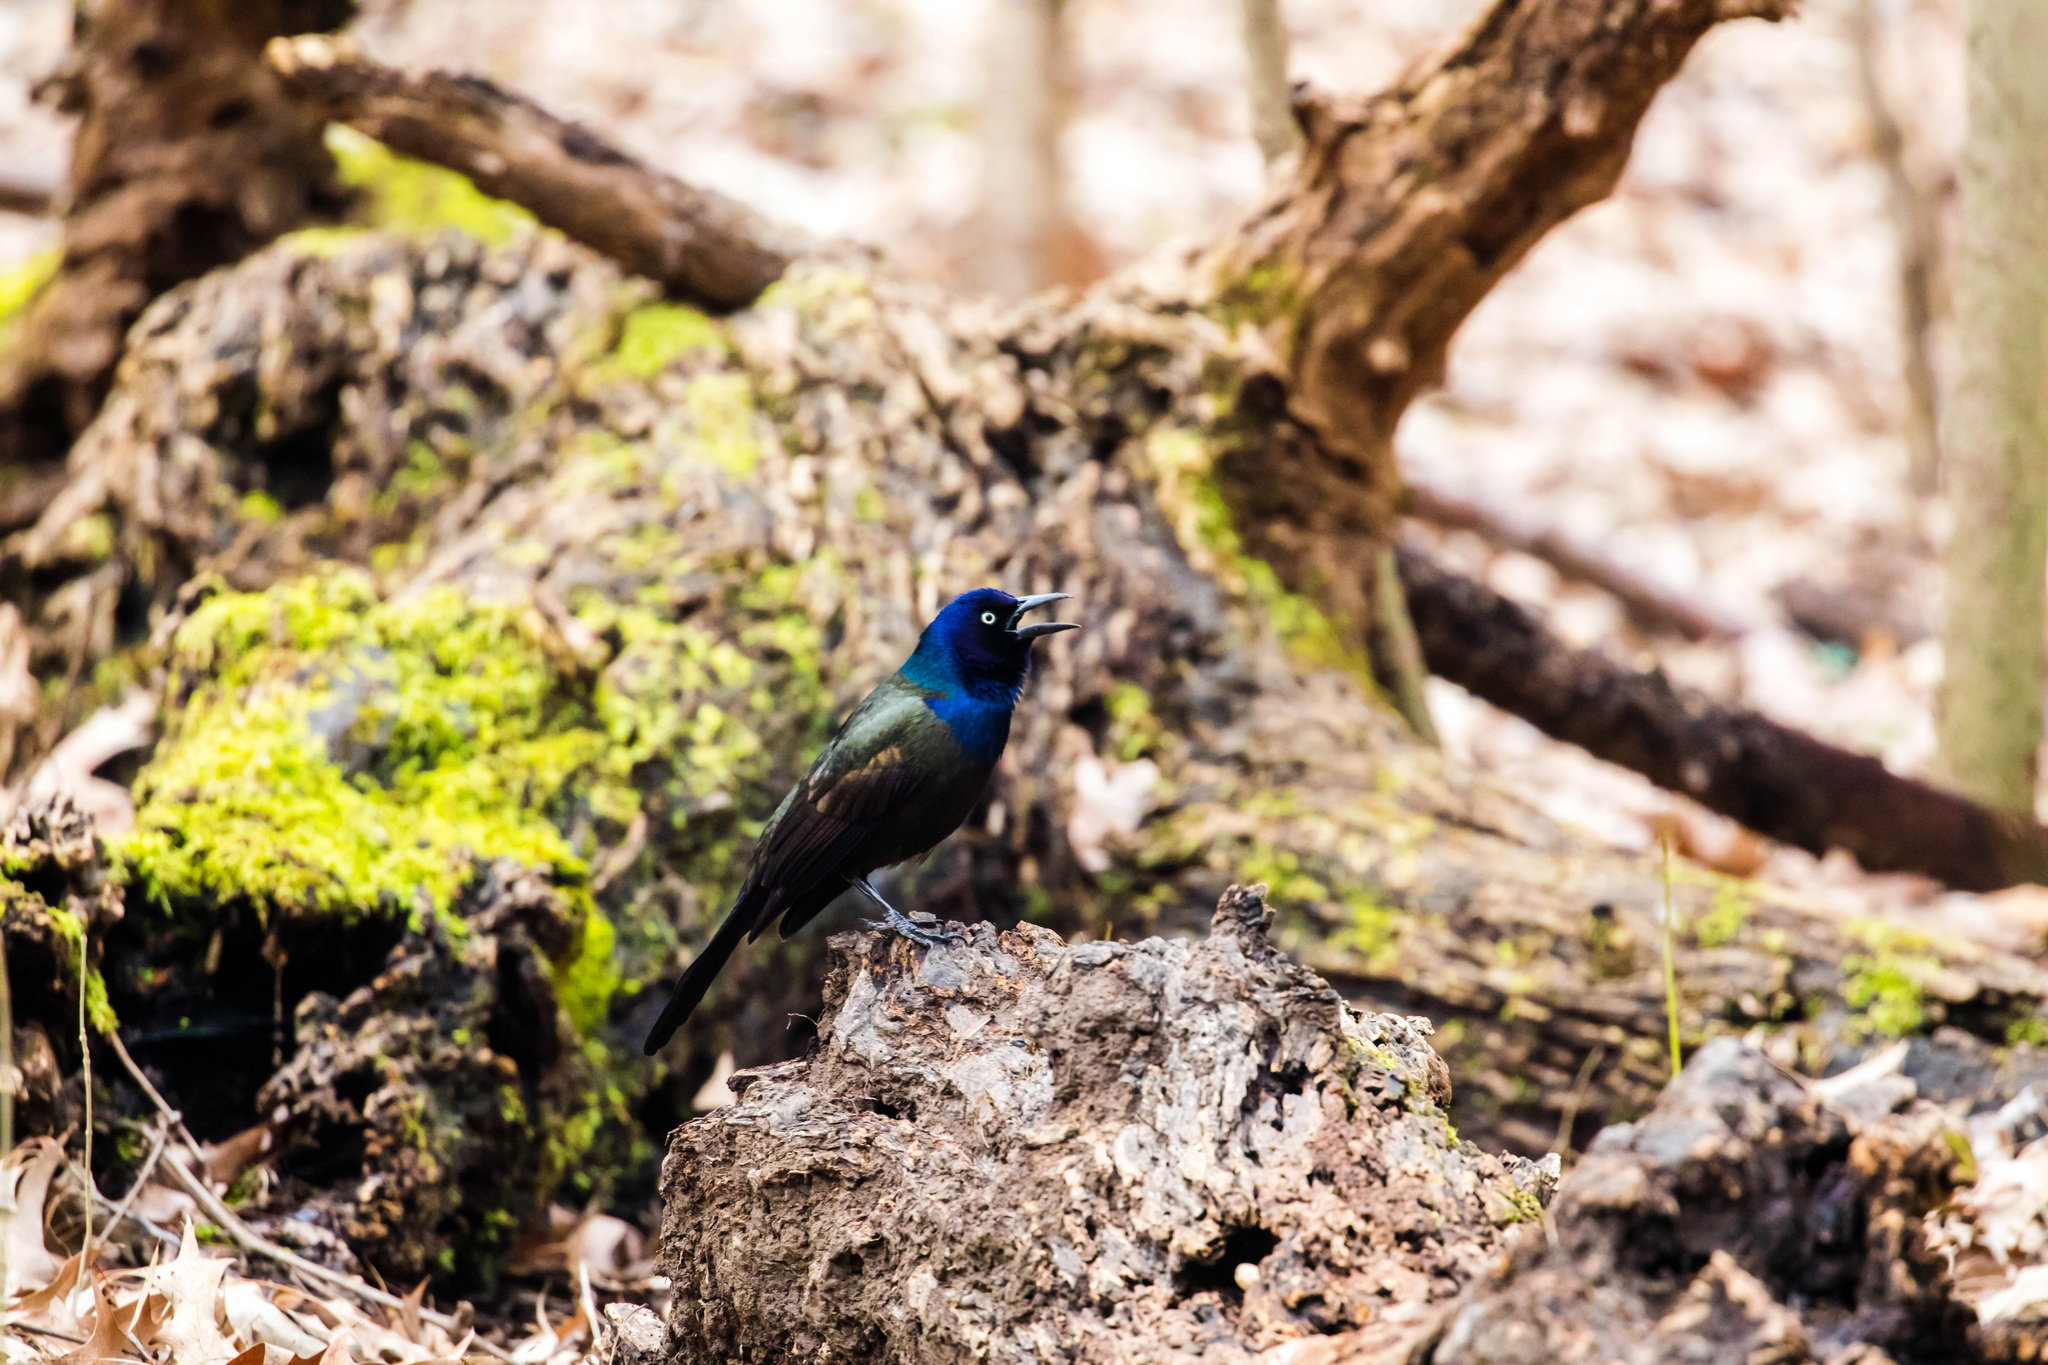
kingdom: Animalia
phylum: Chordata
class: Aves
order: Passeriformes
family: Icteridae
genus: Quiscalus
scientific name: Quiscalus quiscula
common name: Common grackle
